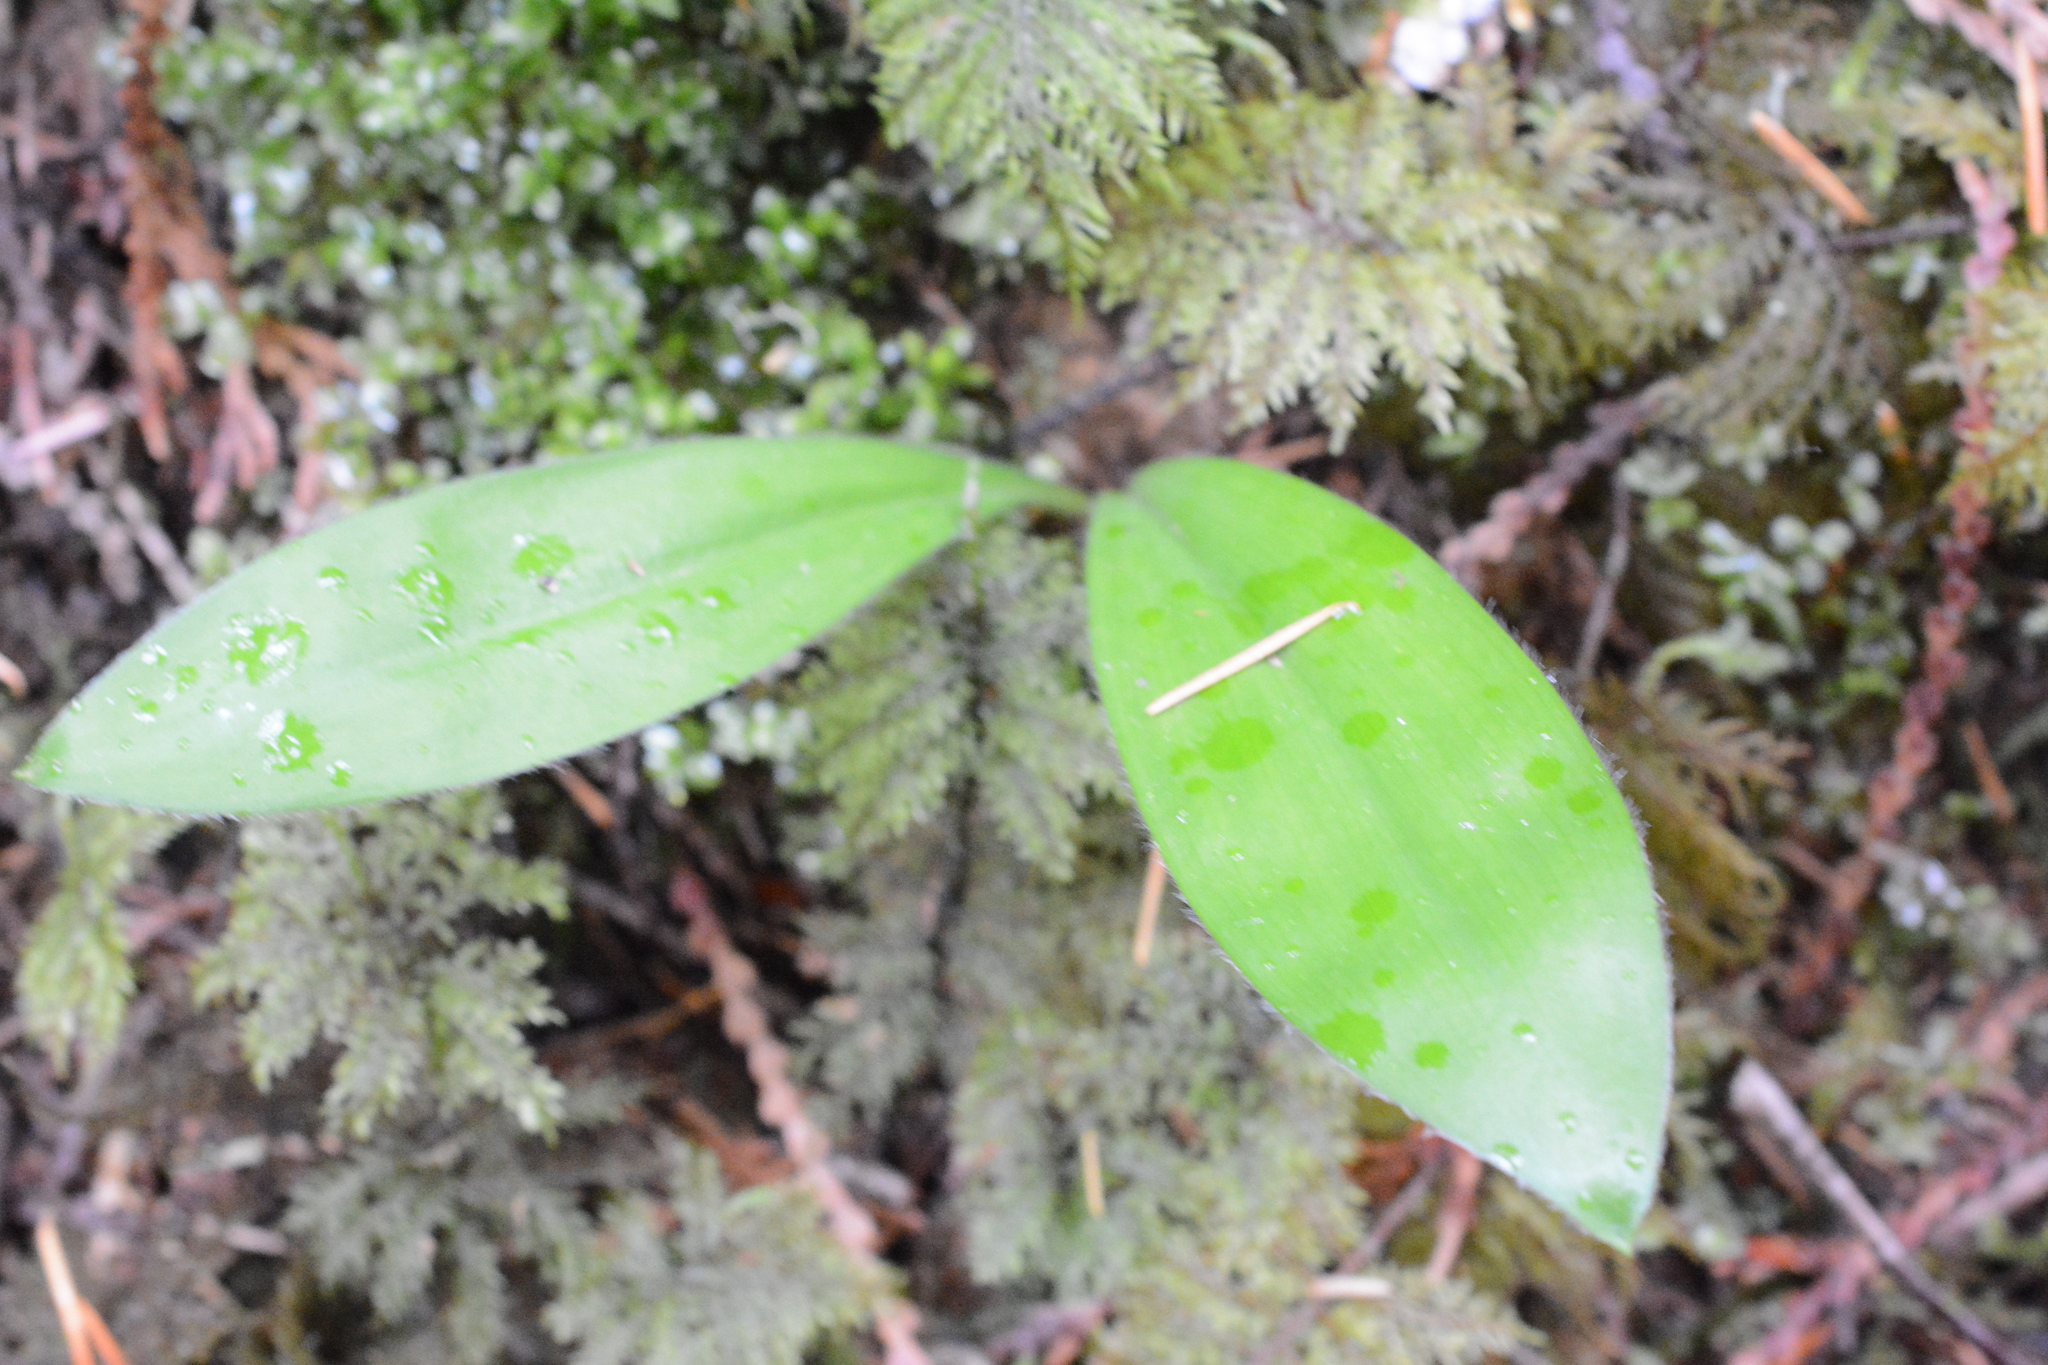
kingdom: Plantae
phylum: Tracheophyta
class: Liliopsida
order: Liliales
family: Liliaceae
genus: Clintonia
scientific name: Clintonia uniflora
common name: Queen's cup
